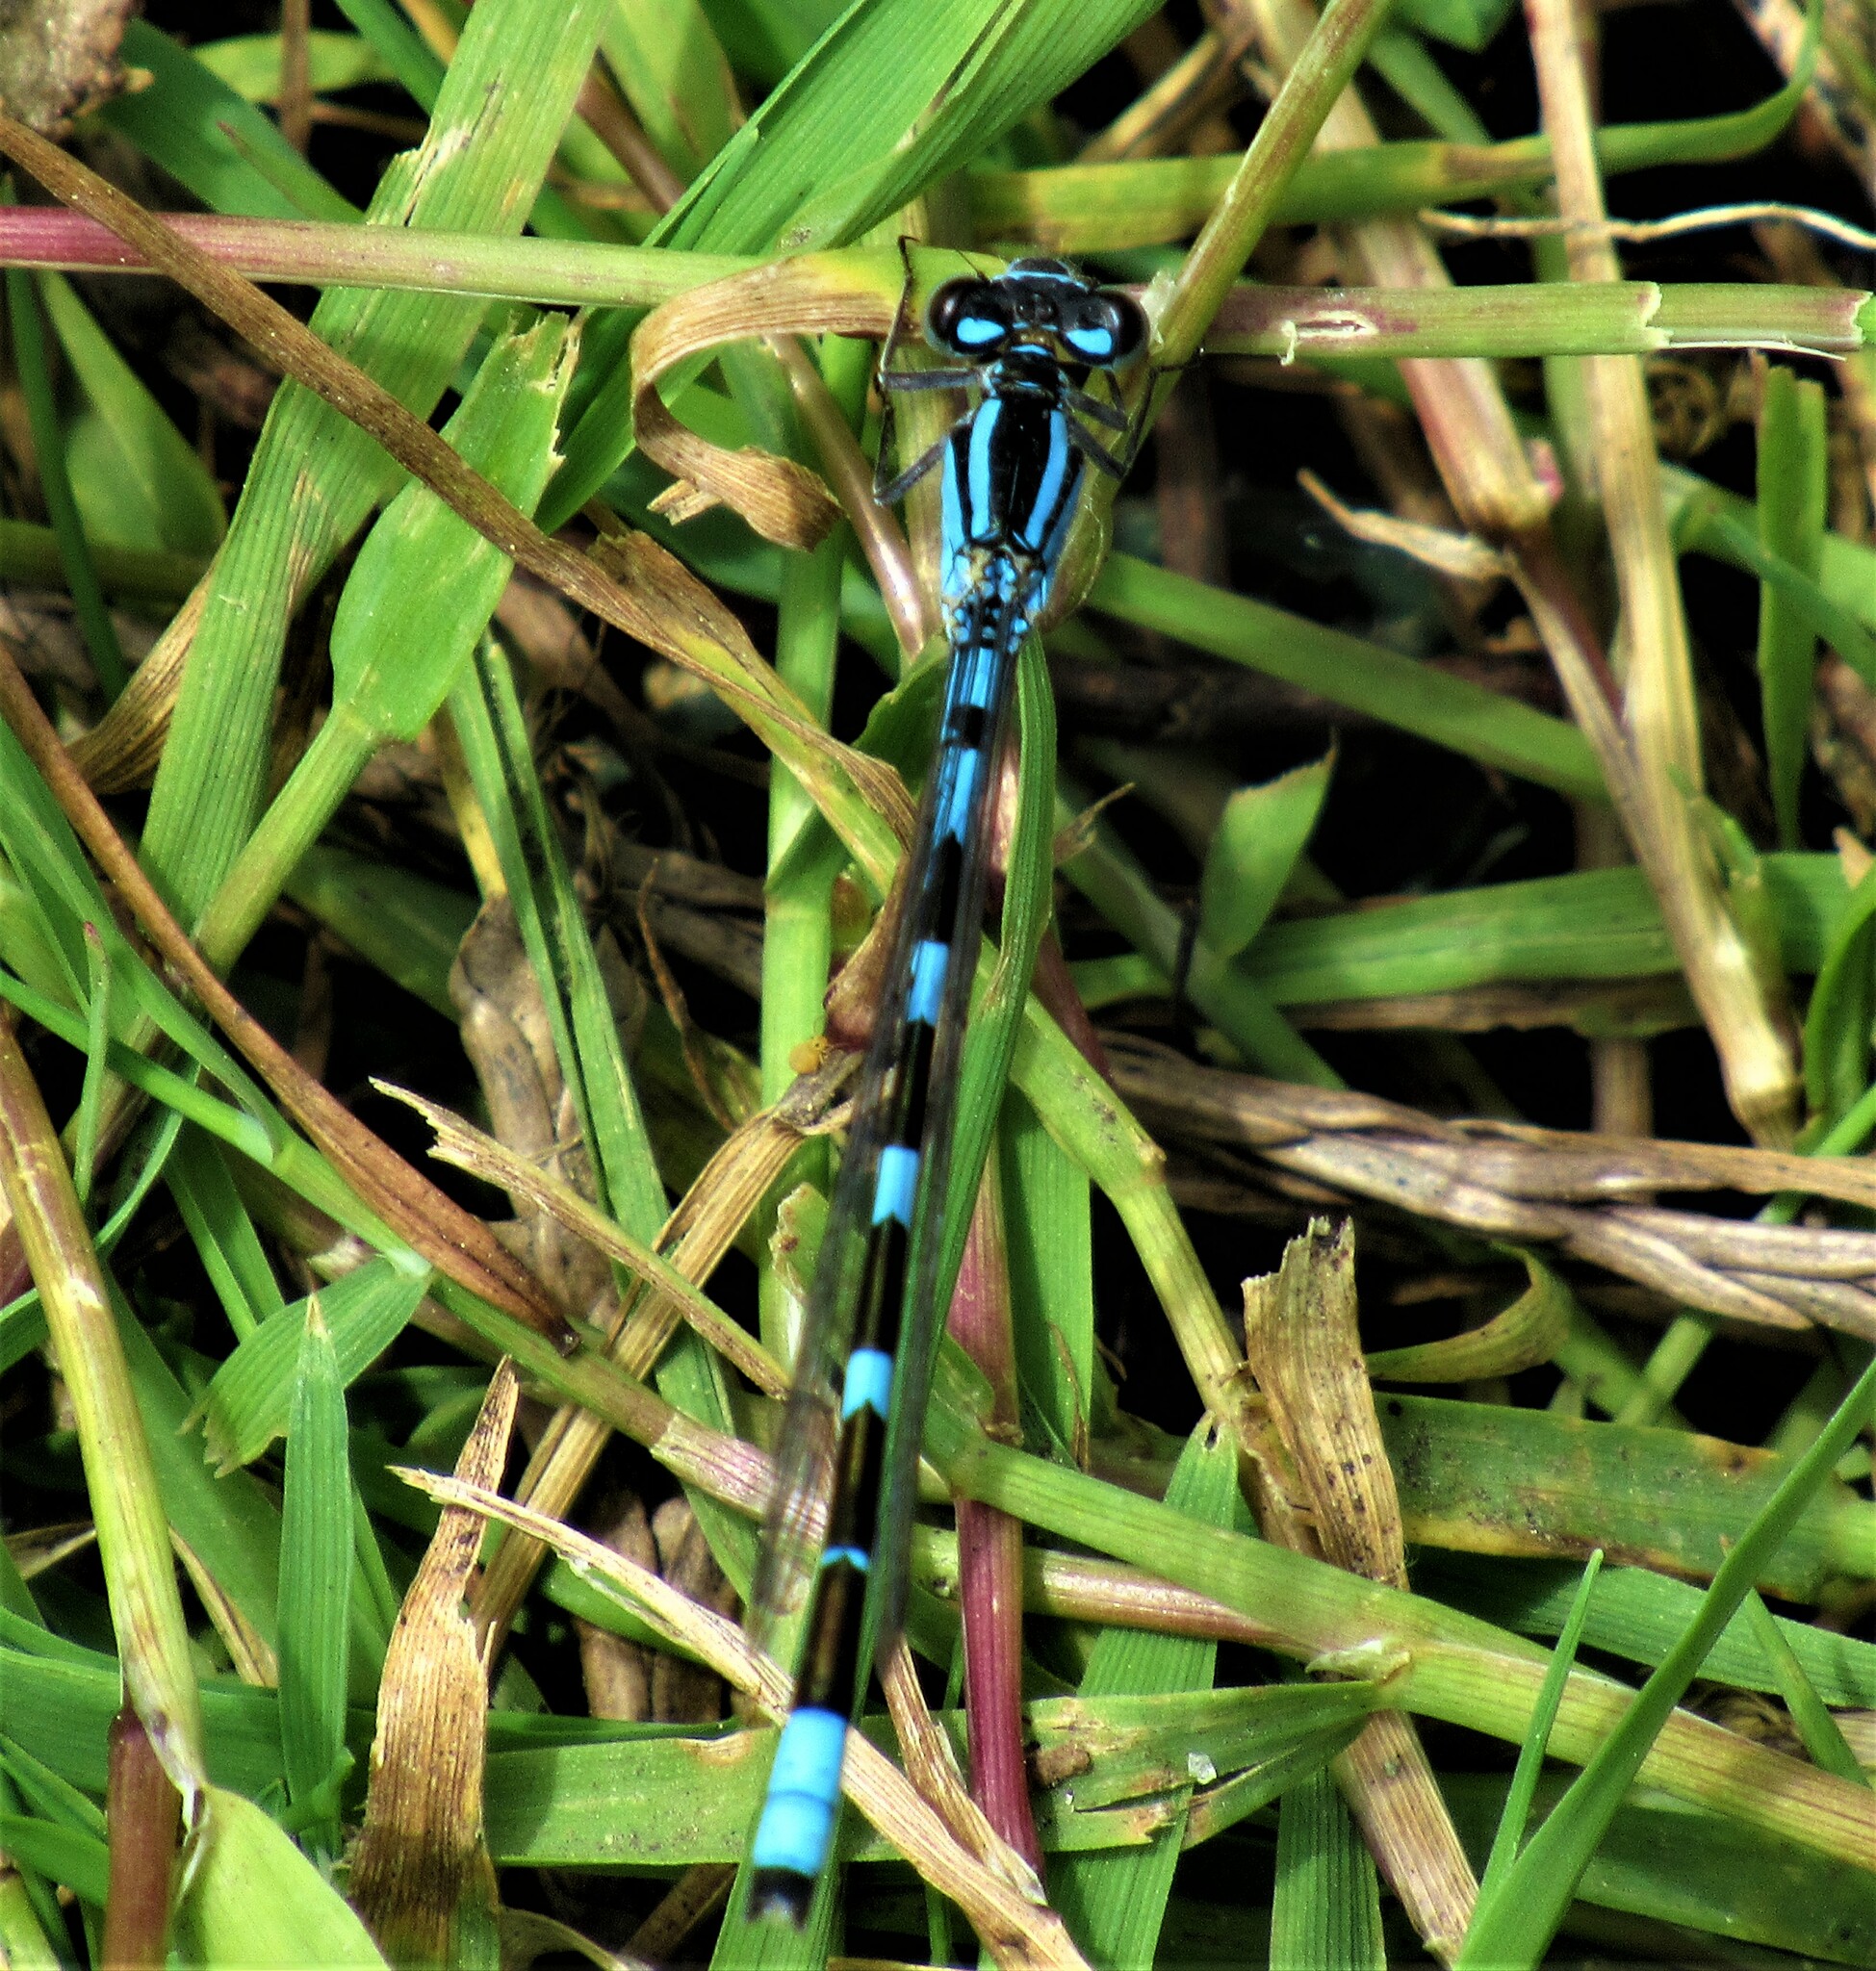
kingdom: Animalia
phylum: Arthropoda
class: Insecta
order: Odonata
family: Coenagrionidae
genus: Enallagma
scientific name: Enallagma carunculatum
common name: Tule bluet
